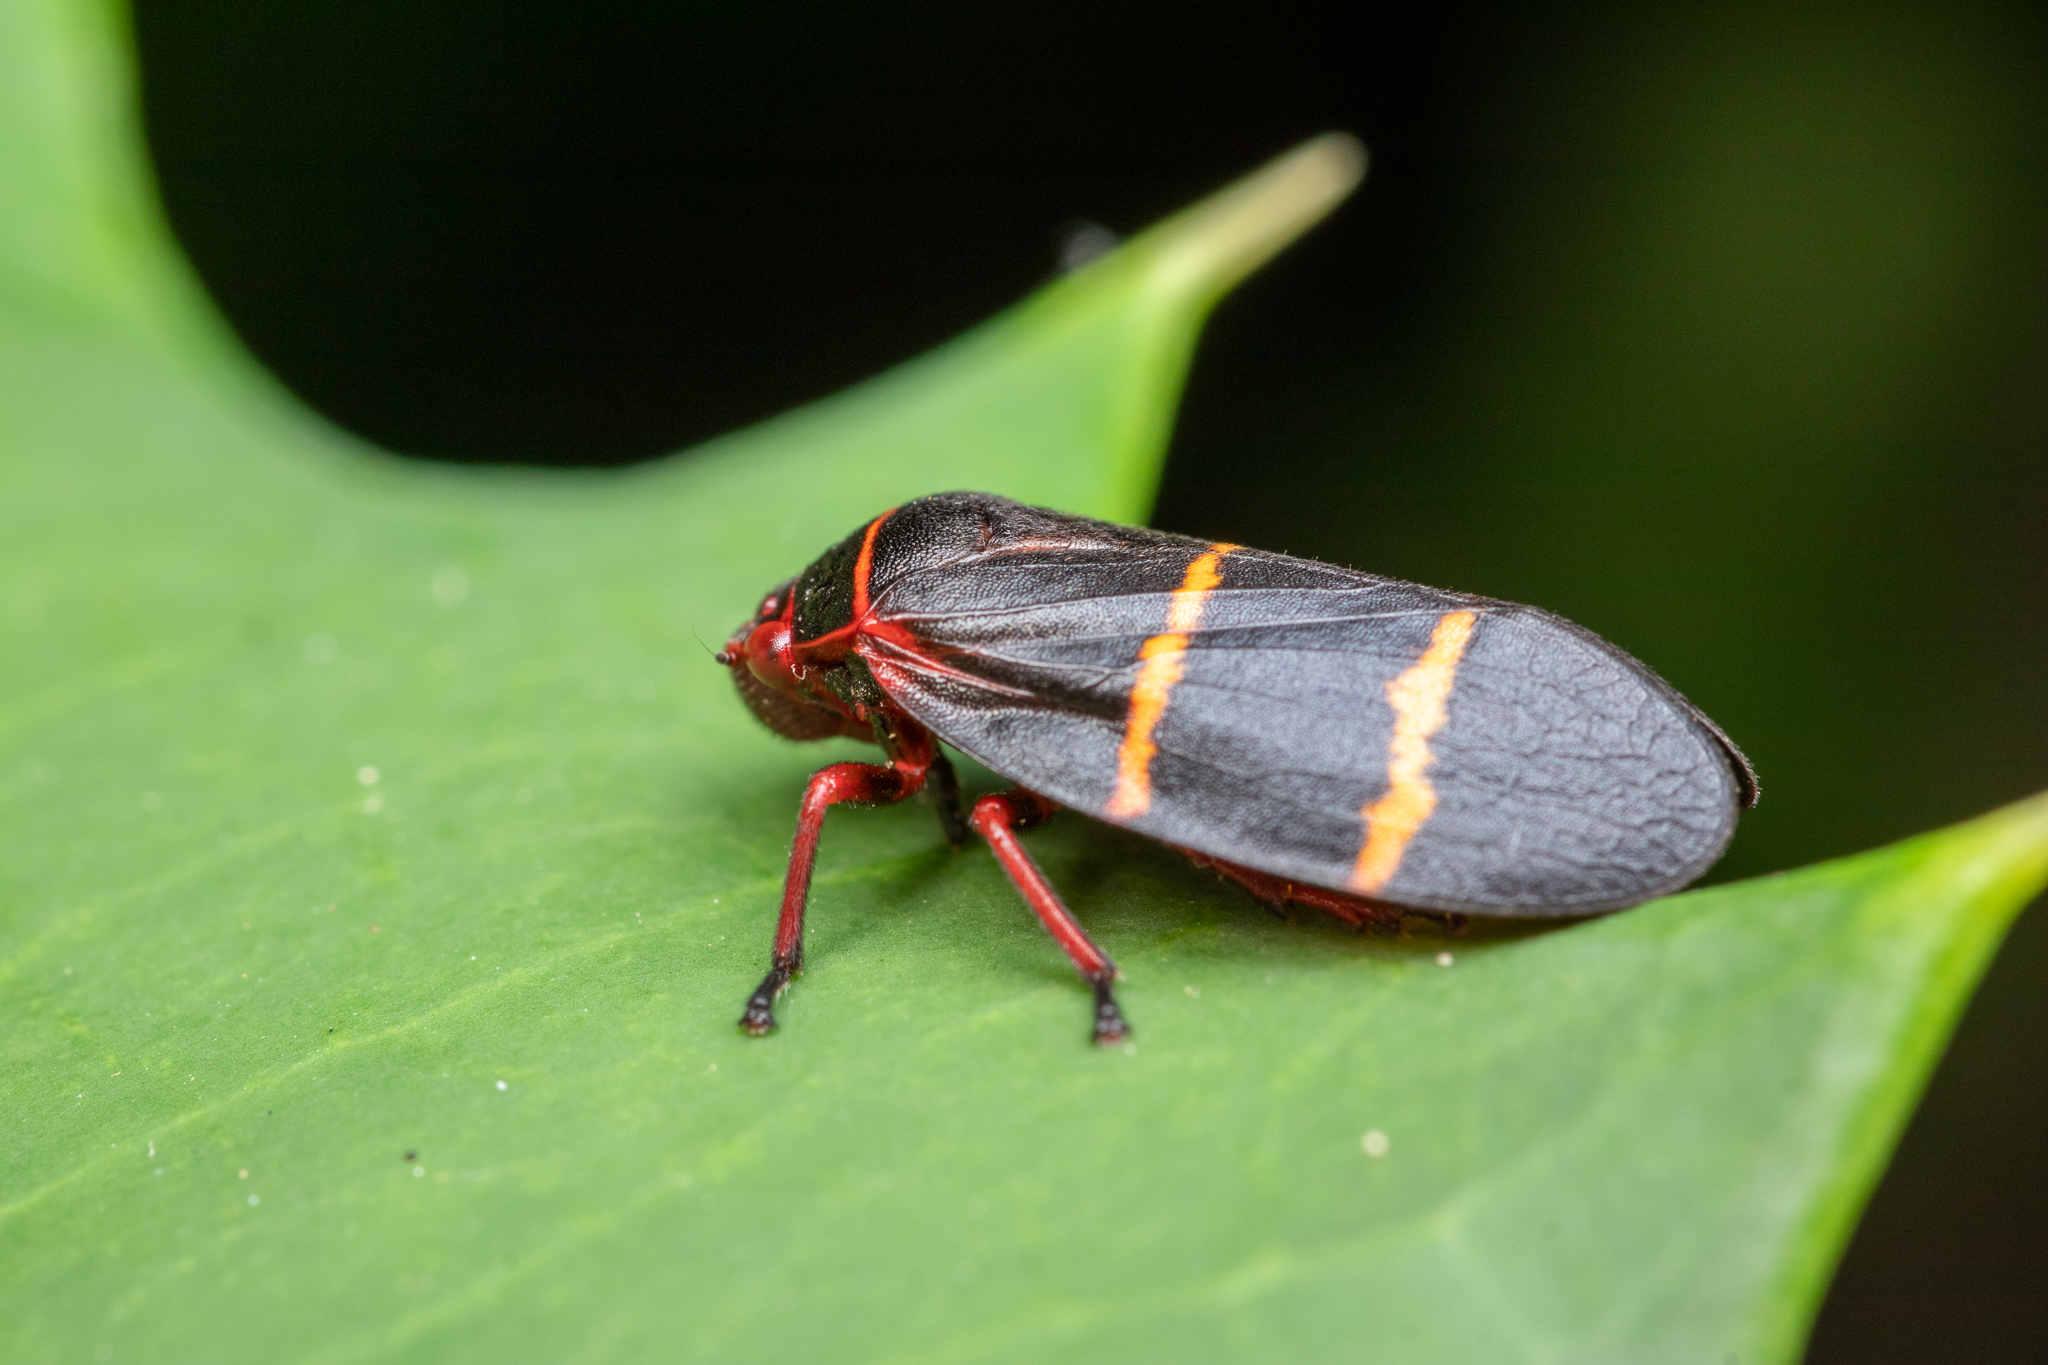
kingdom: Animalia
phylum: Arthropoda
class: Insecta
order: Hemiptera
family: Cercopidae
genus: Prosapia
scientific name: Prosapia bicincta
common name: Twolined spittlebug
